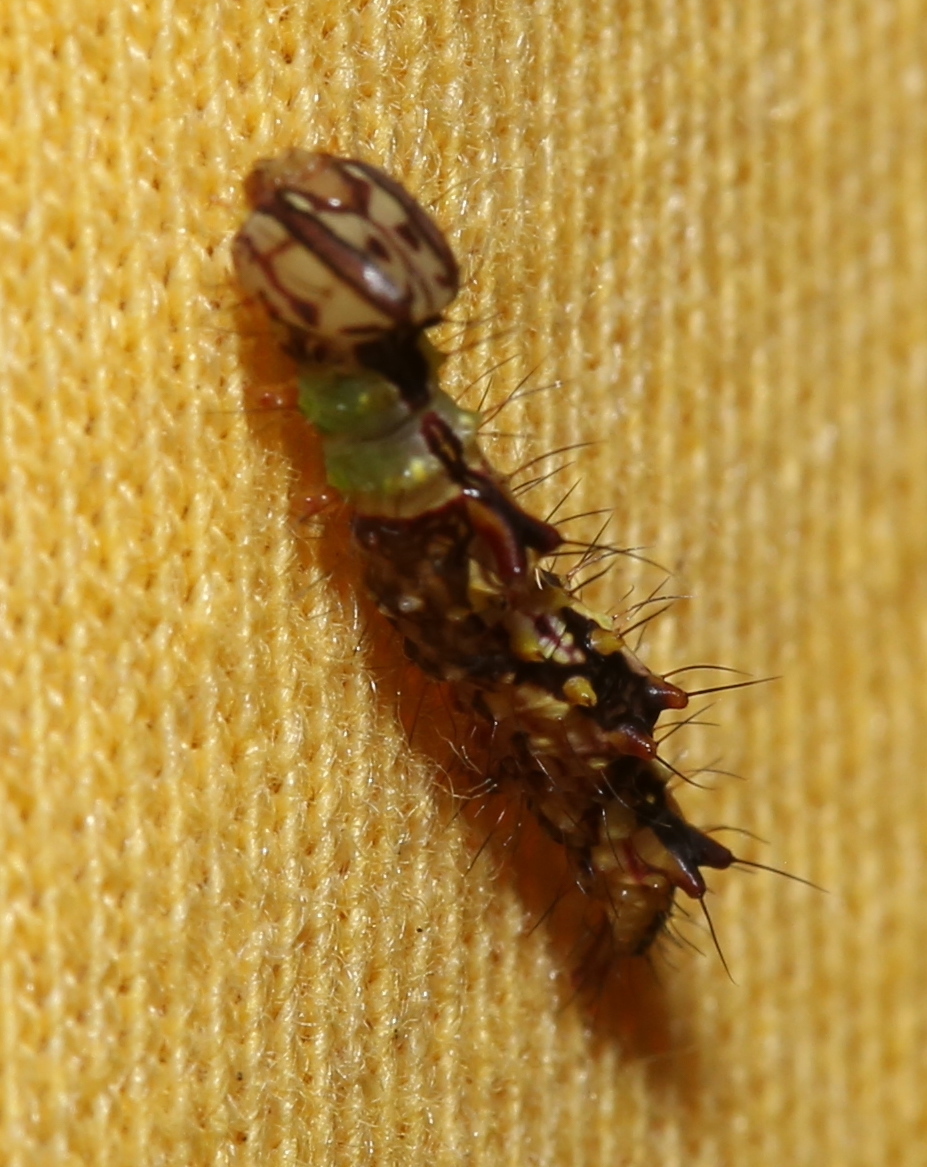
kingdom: Animalia
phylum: Arthropoda
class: Insecta
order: Lepidoptera
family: Notodontidae
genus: Schizura
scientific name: Schizura ipomaeae
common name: Morning-glory prominent
